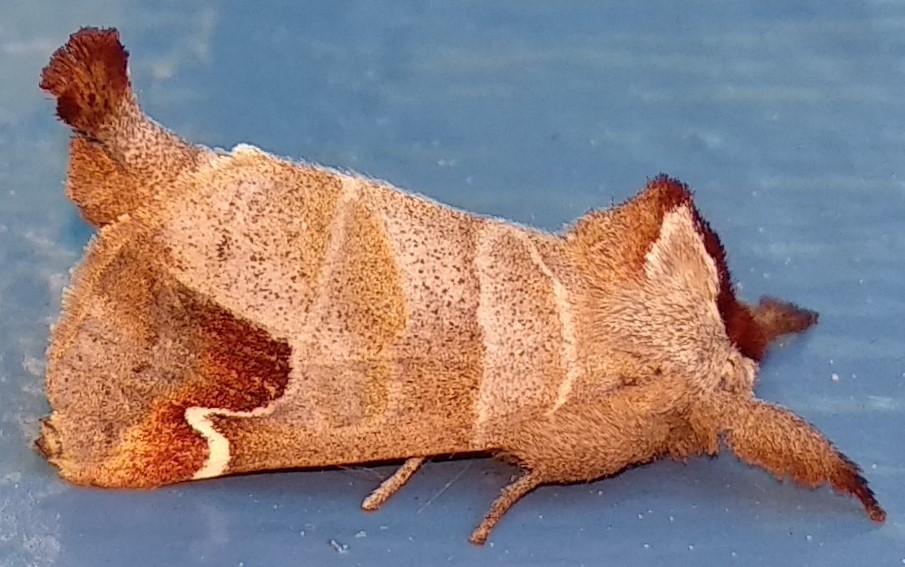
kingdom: Animalia
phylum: Arthropoda
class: Insecta
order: Lepidoptera
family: Notodontidae
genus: Clostera
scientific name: Clostera albosigma
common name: Sigmoid prominent
